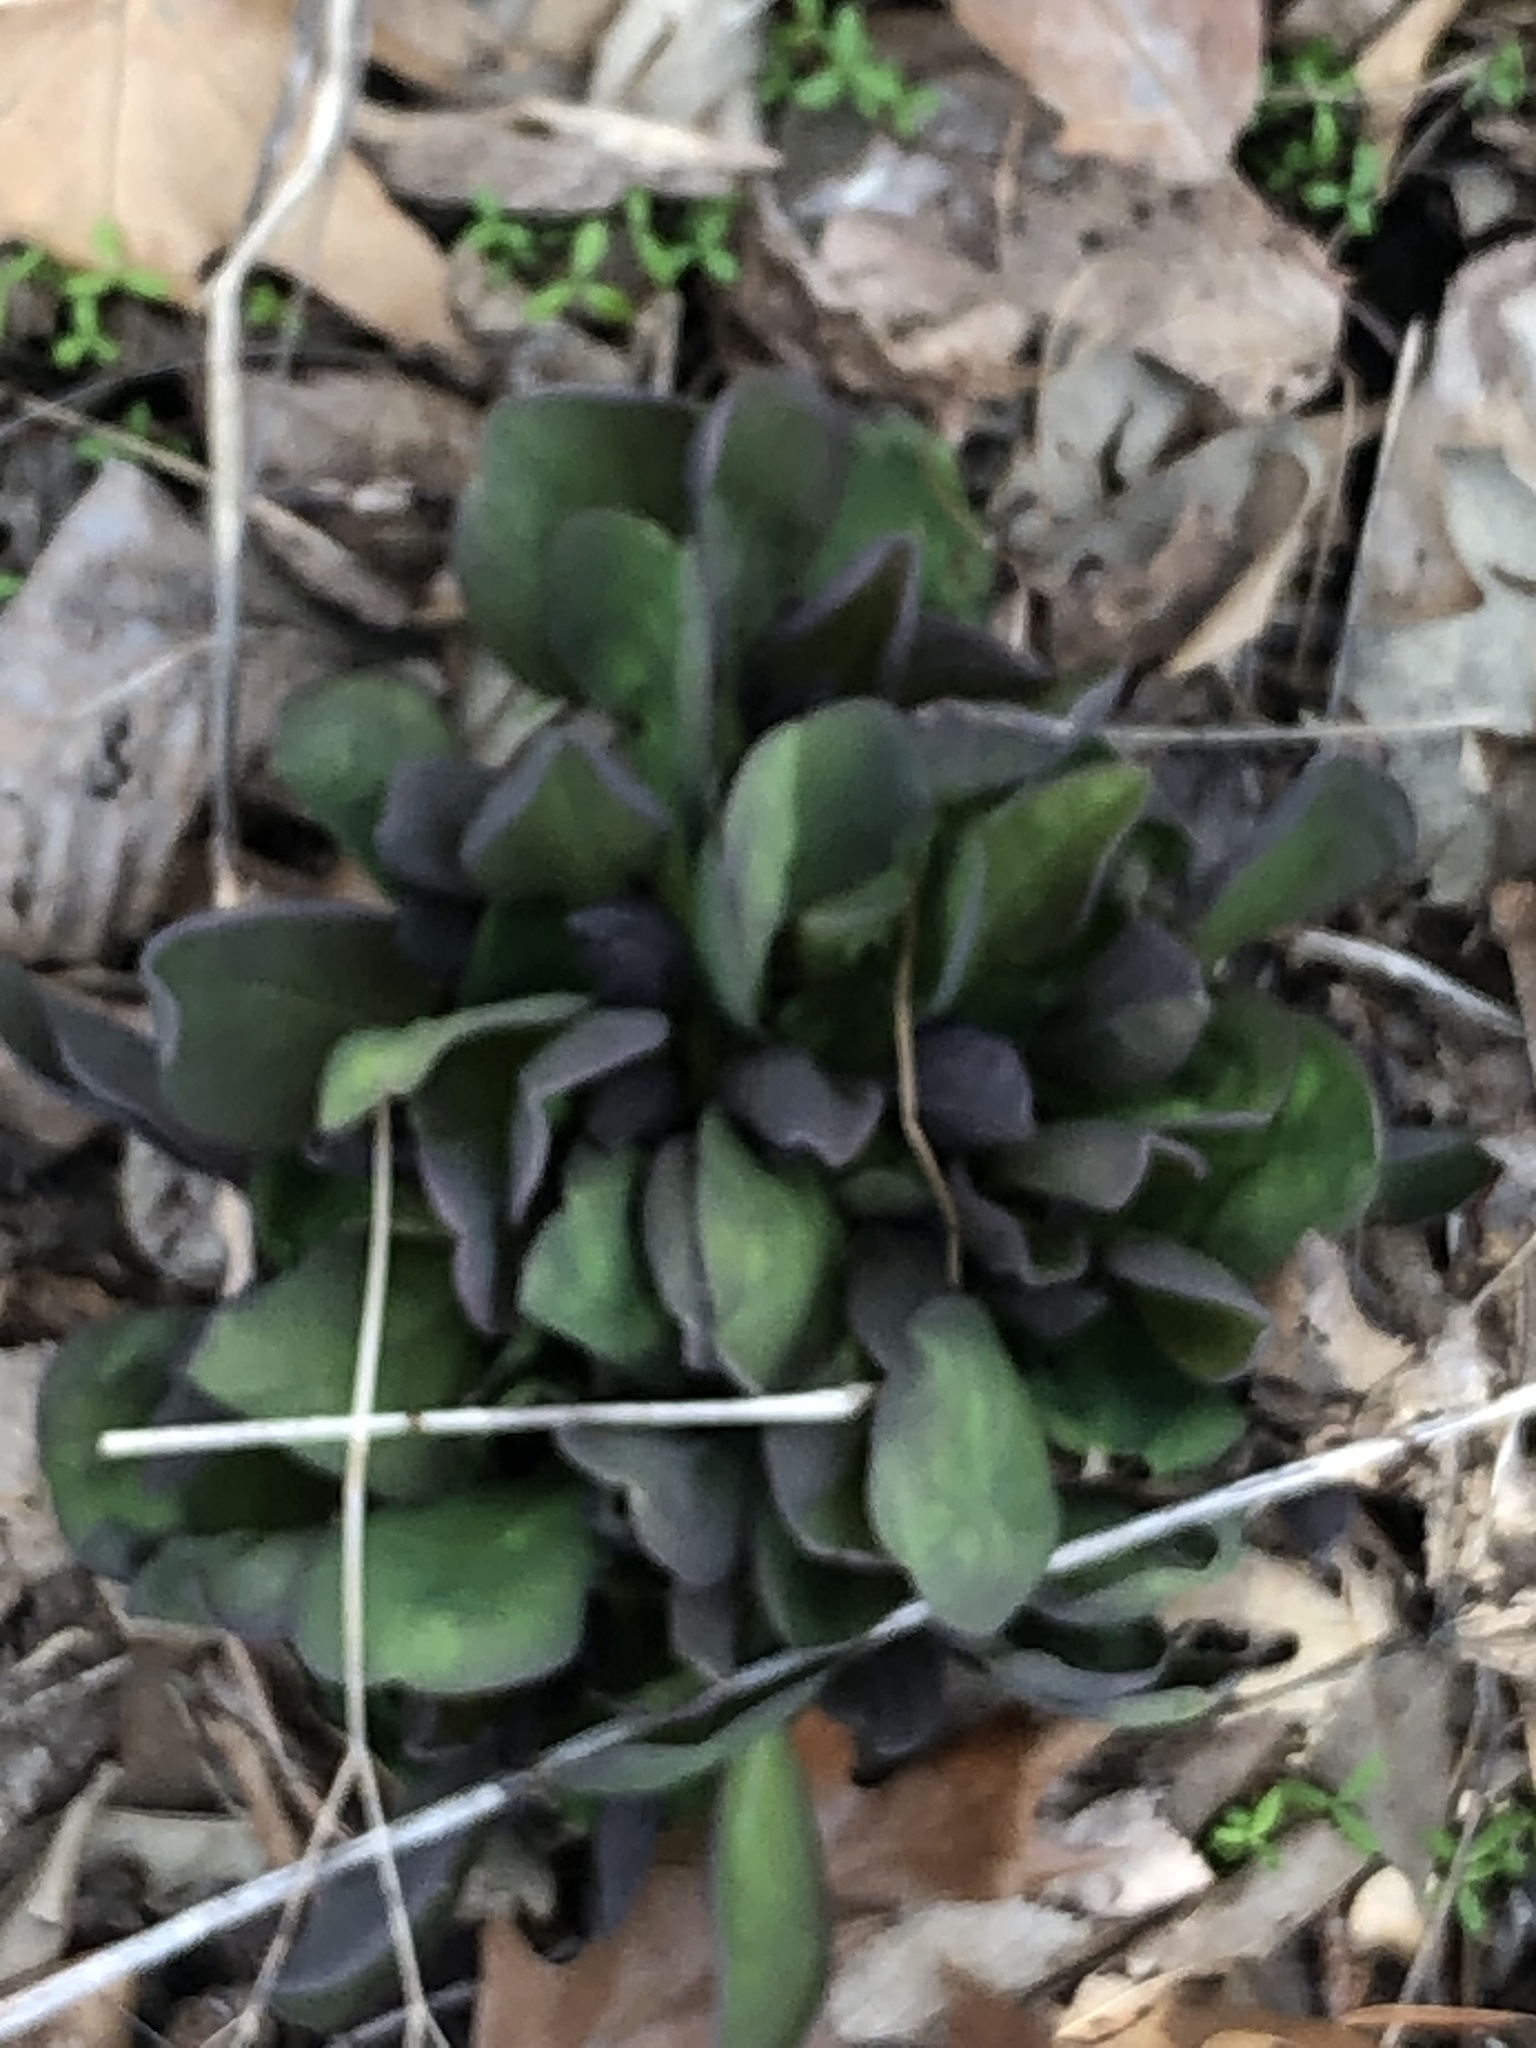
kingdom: Plantae
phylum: Tracheophyta
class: Magnoliopsida
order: Boraginales
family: Boraginaceae
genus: Mertensia
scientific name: Mertensia virginica
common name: Virginia bluebells
